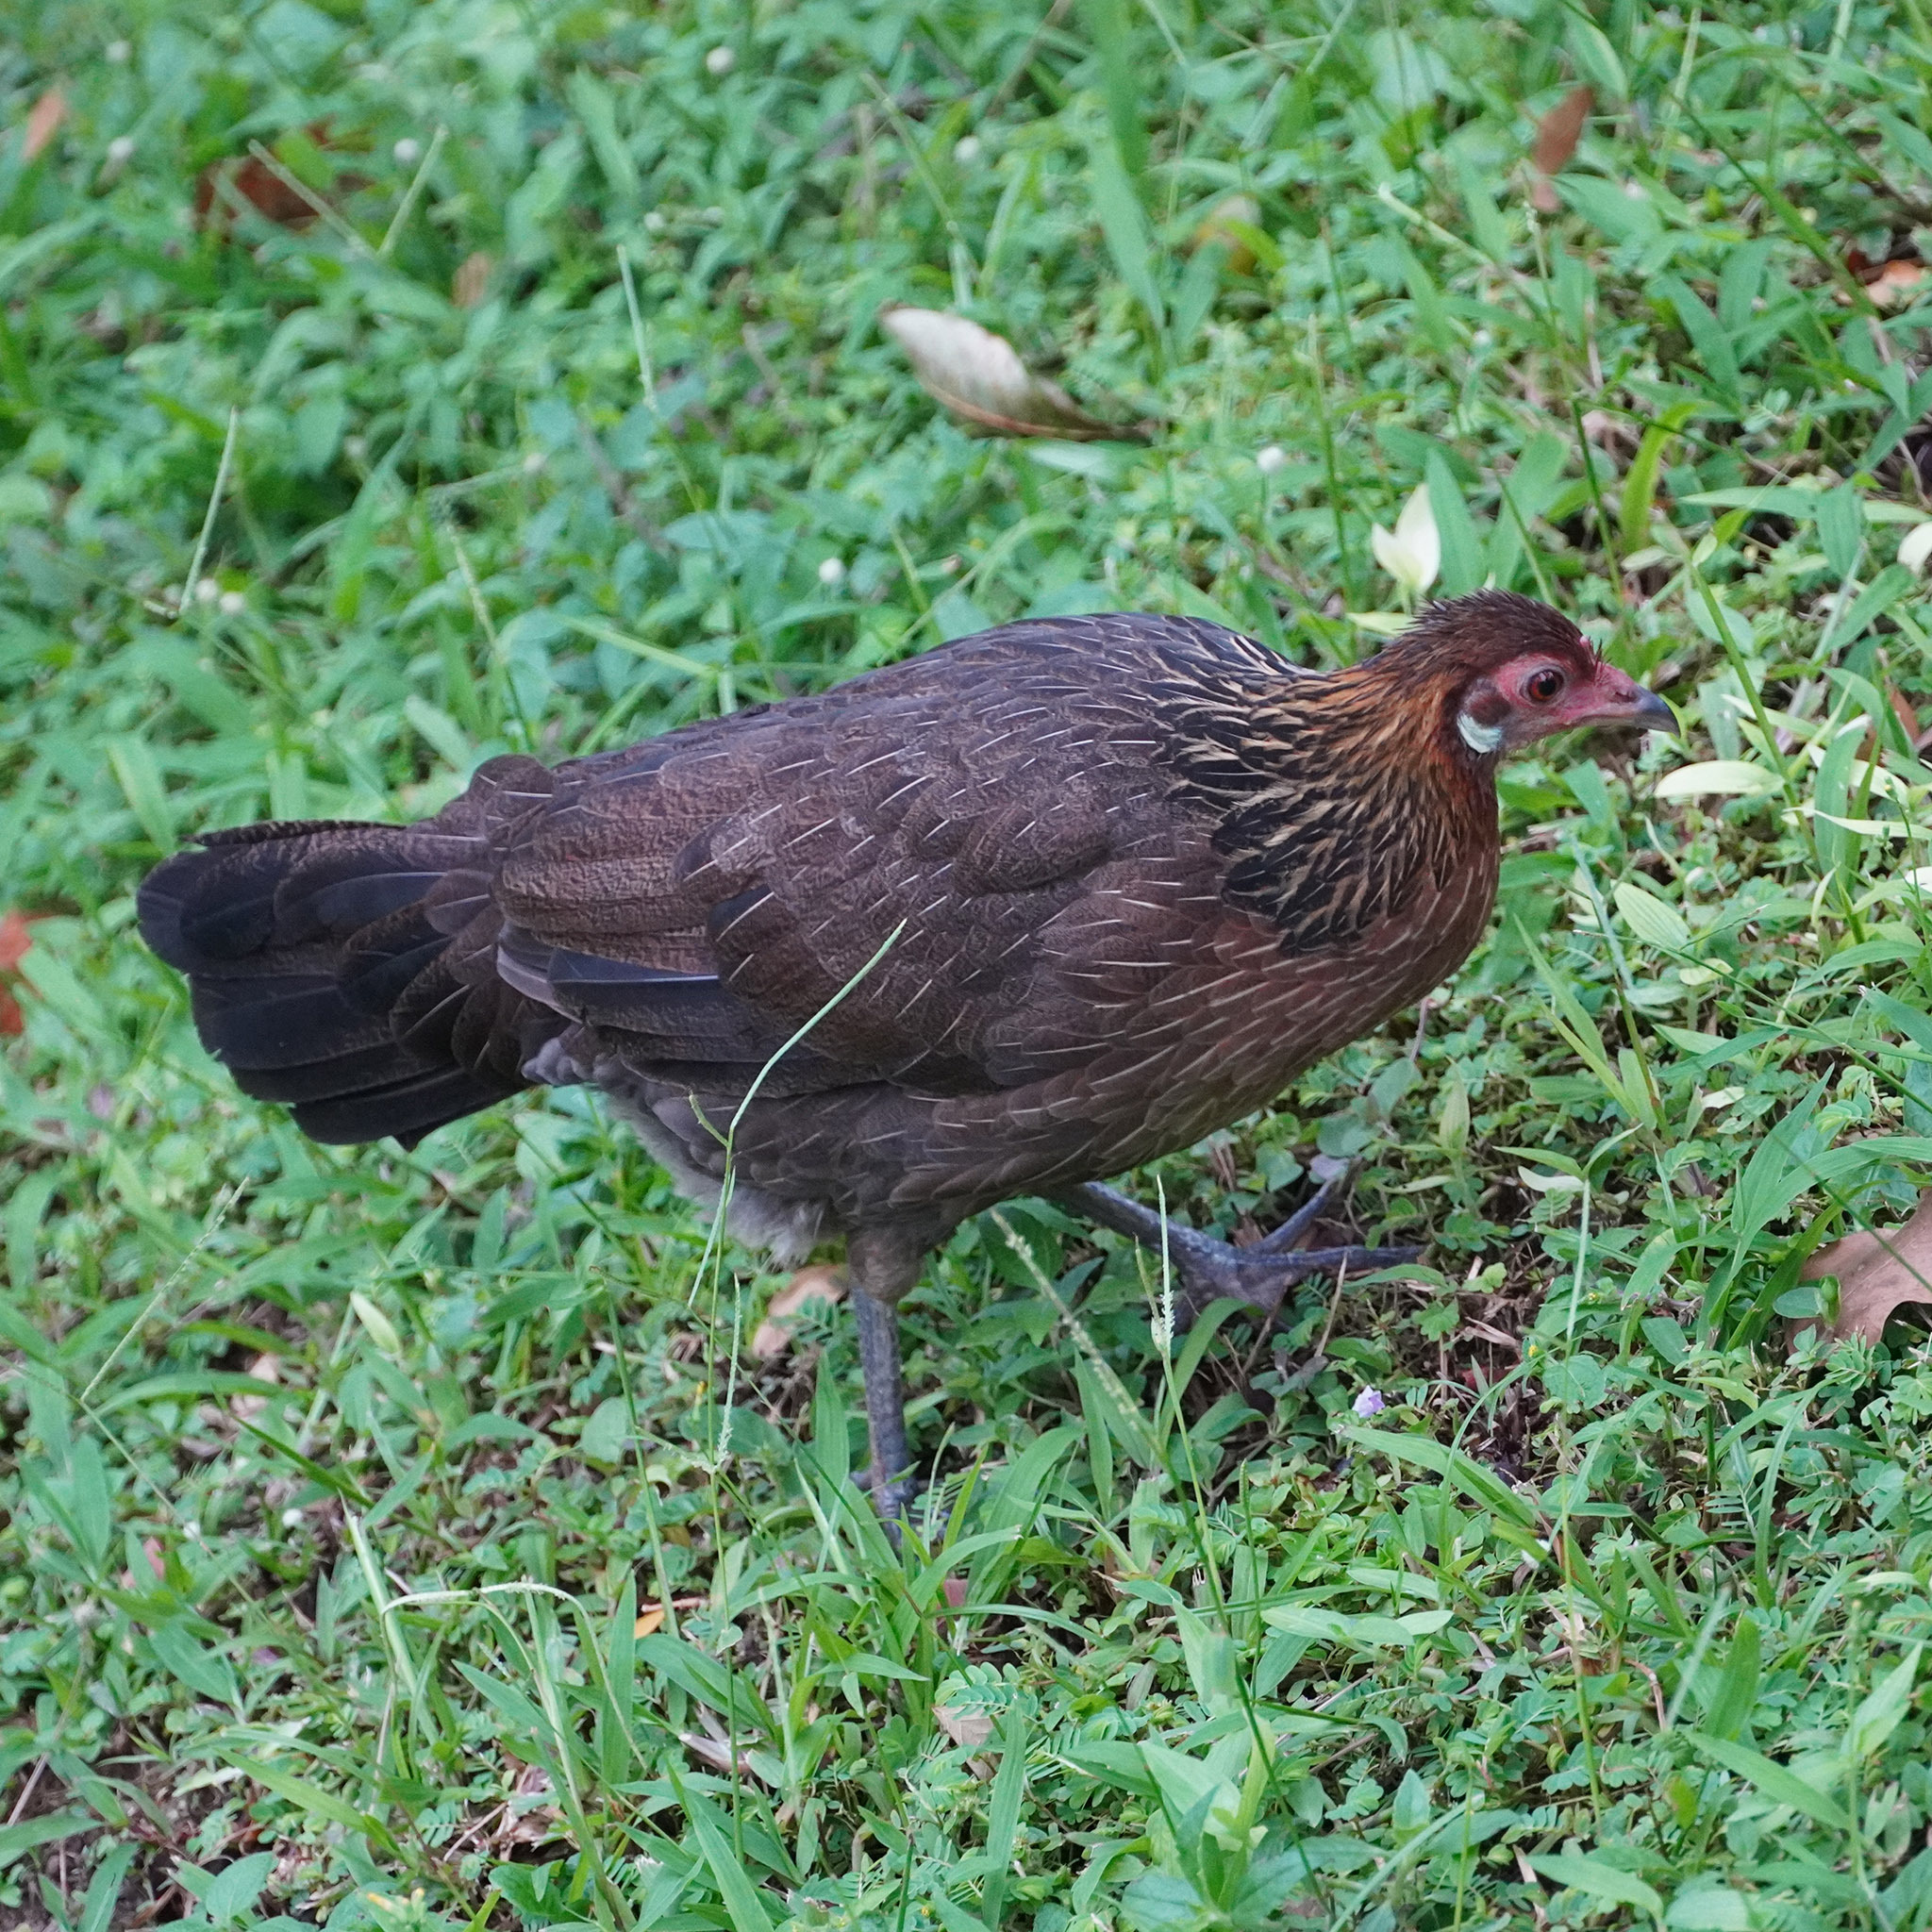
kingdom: Animalia
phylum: Chordata
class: Aves
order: Galliformes
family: Phasianidae
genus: Gallus
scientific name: Gallus gallus
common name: Red junglefowl
